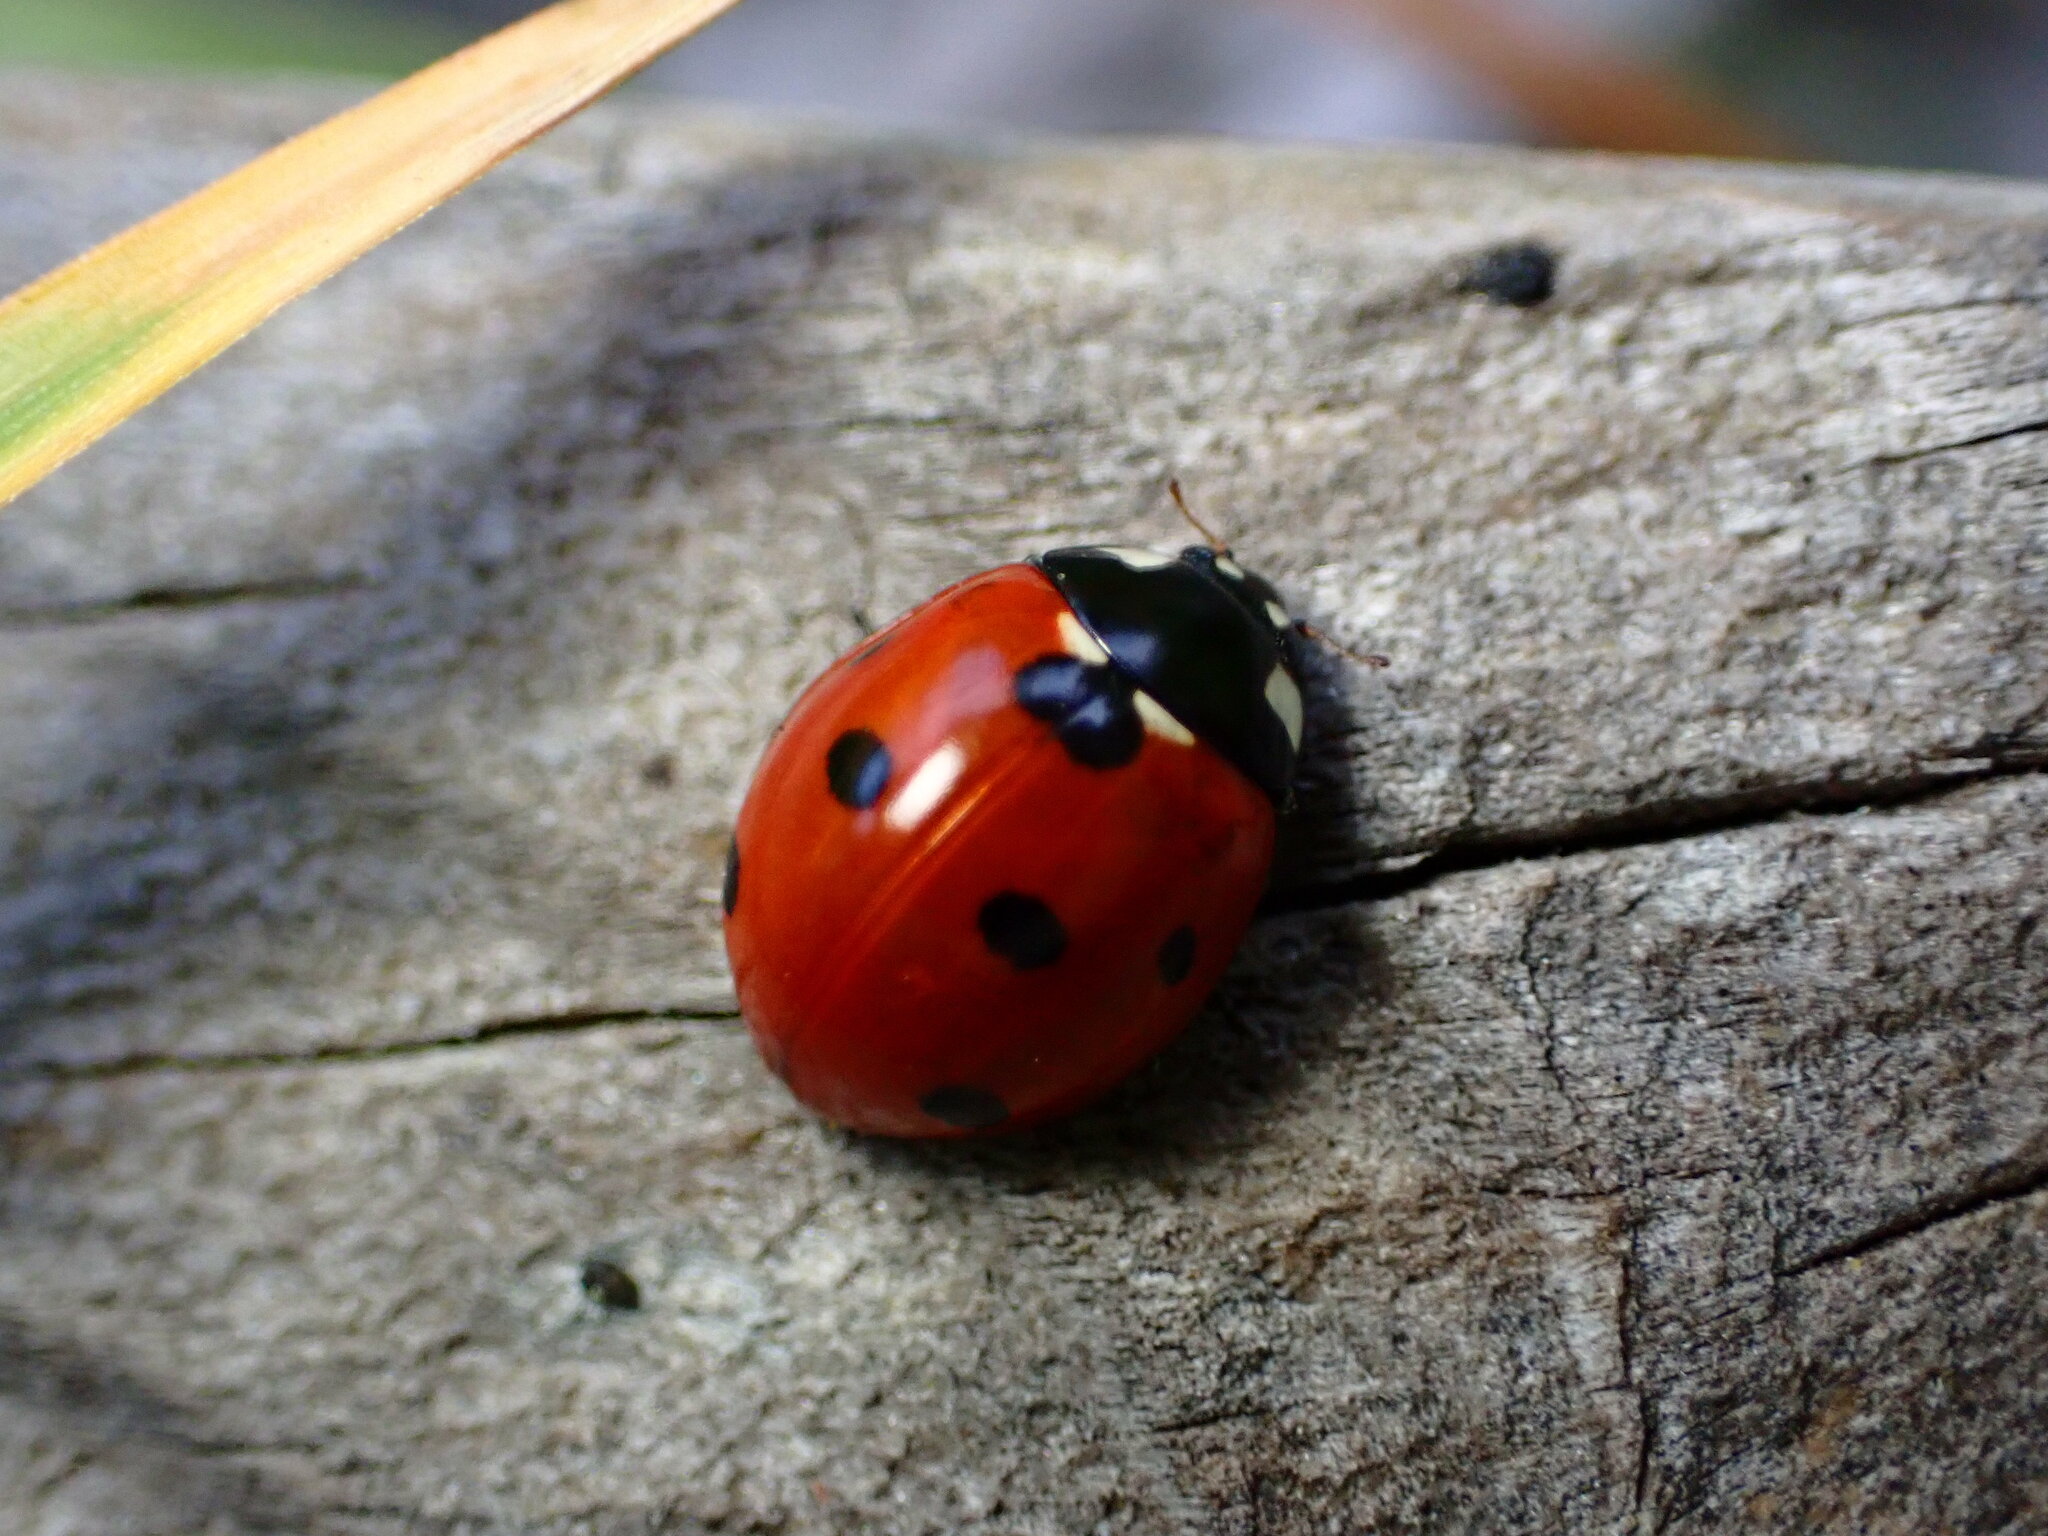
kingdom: Animalia
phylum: Arthropoda
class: Insecta
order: Coleoptera
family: Coccinellidae
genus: Coccinella
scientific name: Coccinella septempunctata
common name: Sevenspotted lady beetle
